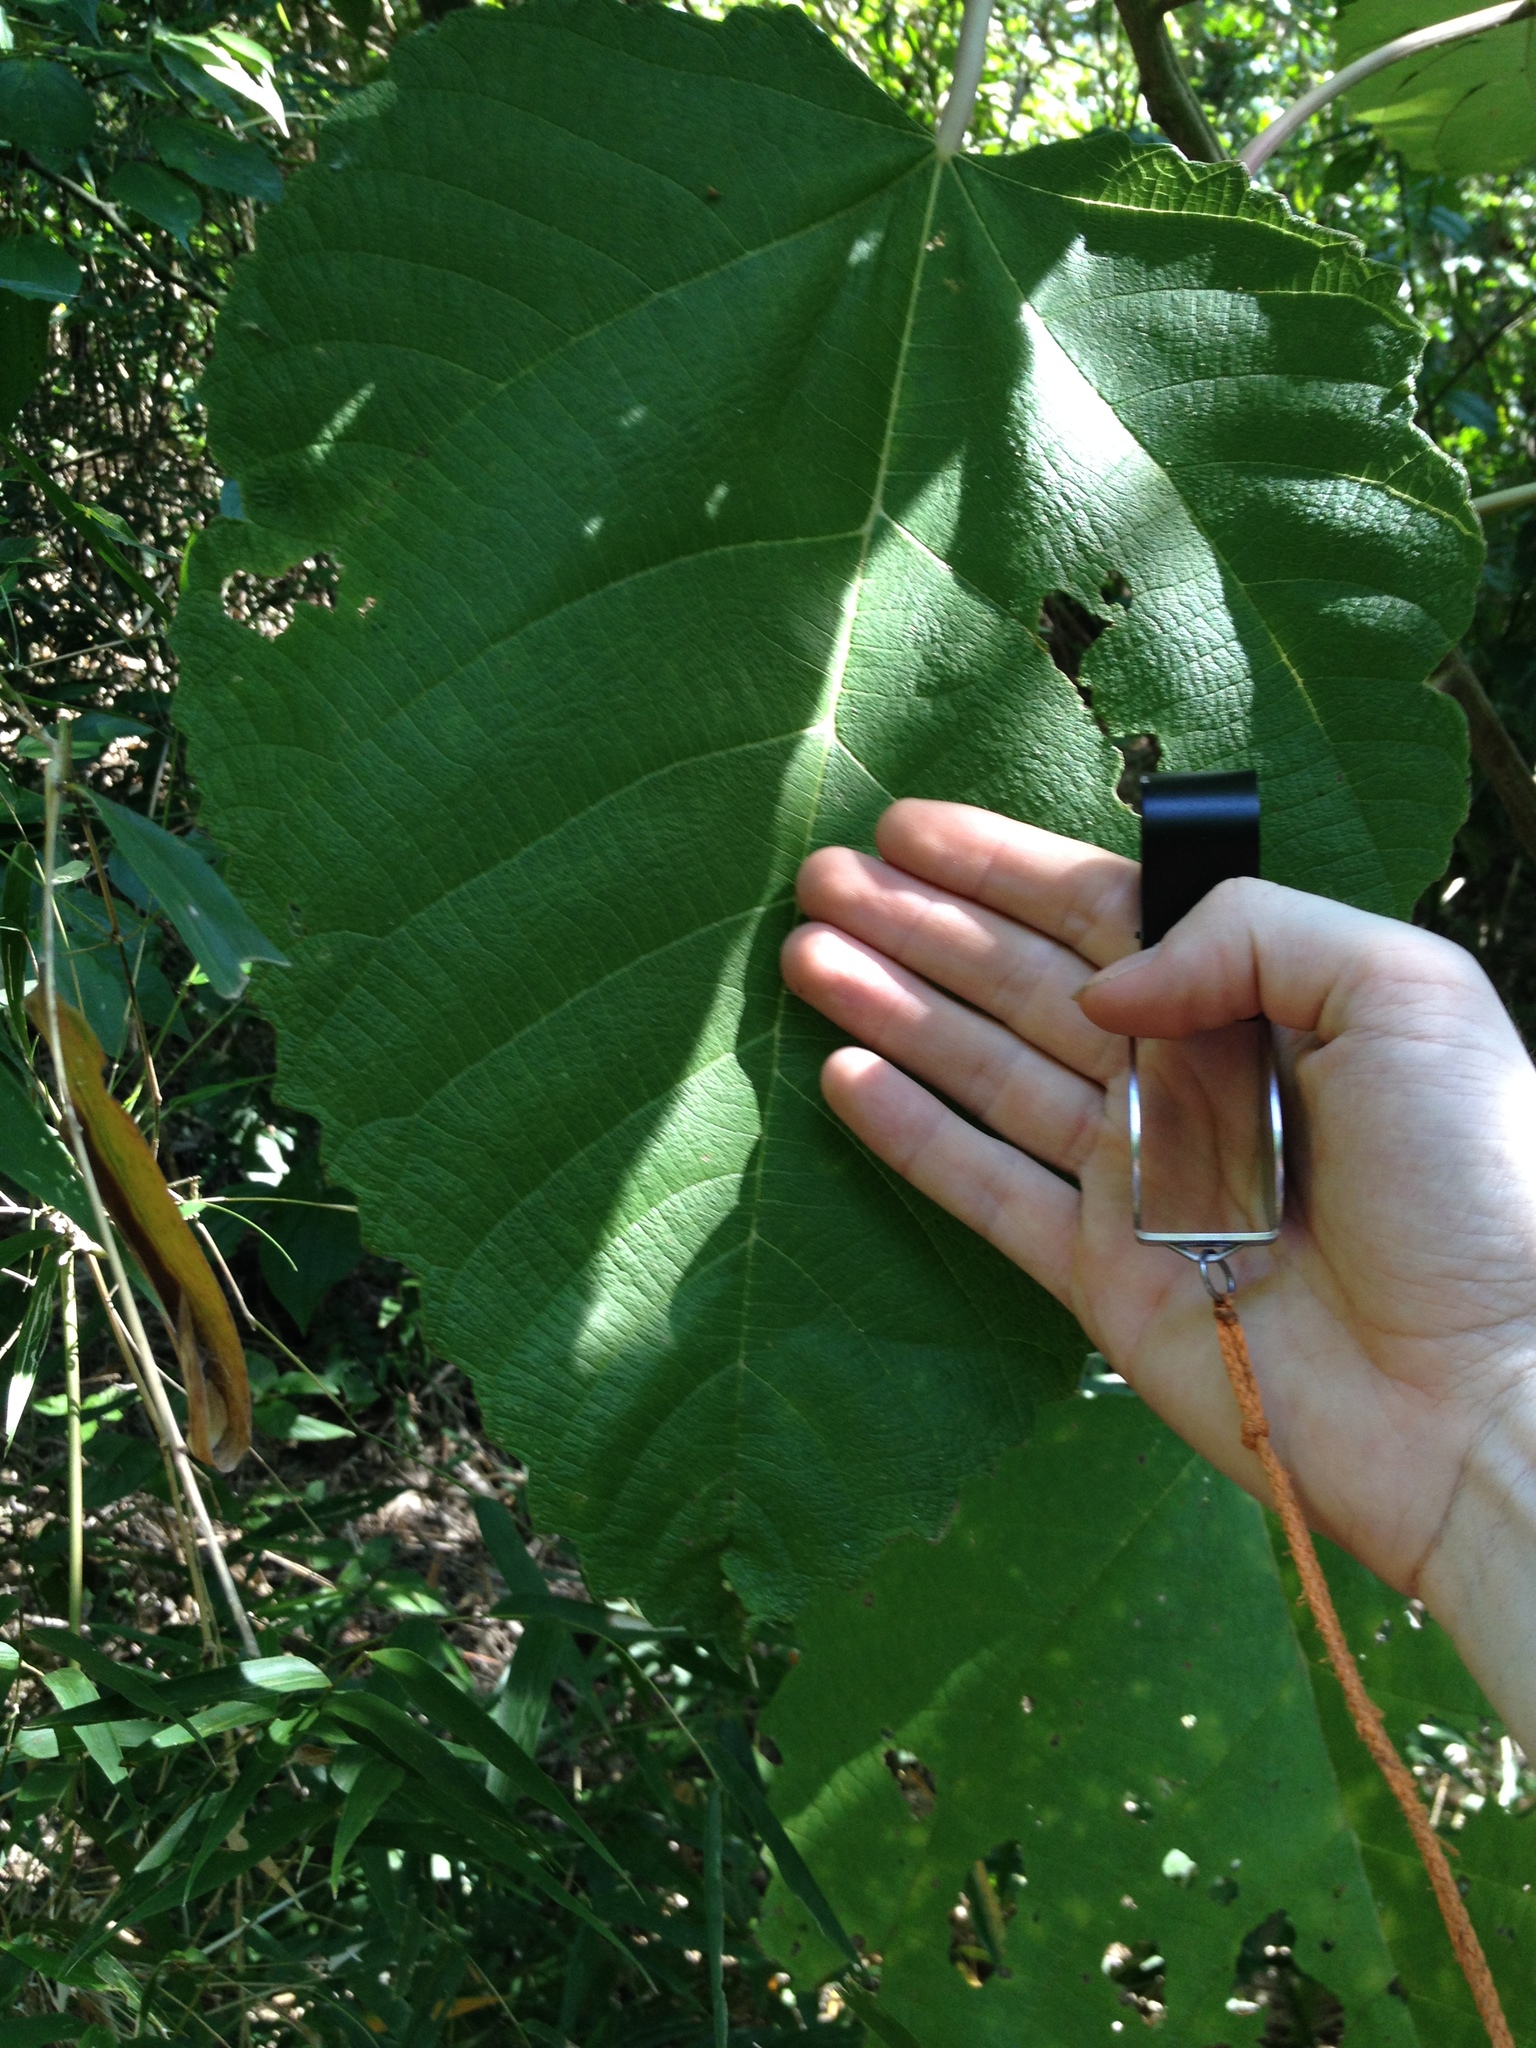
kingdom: Plantae
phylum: Tracheophyta
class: Magnoliopsida
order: Rosales
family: Urticaceae
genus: Urera
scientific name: Urera baccifera
